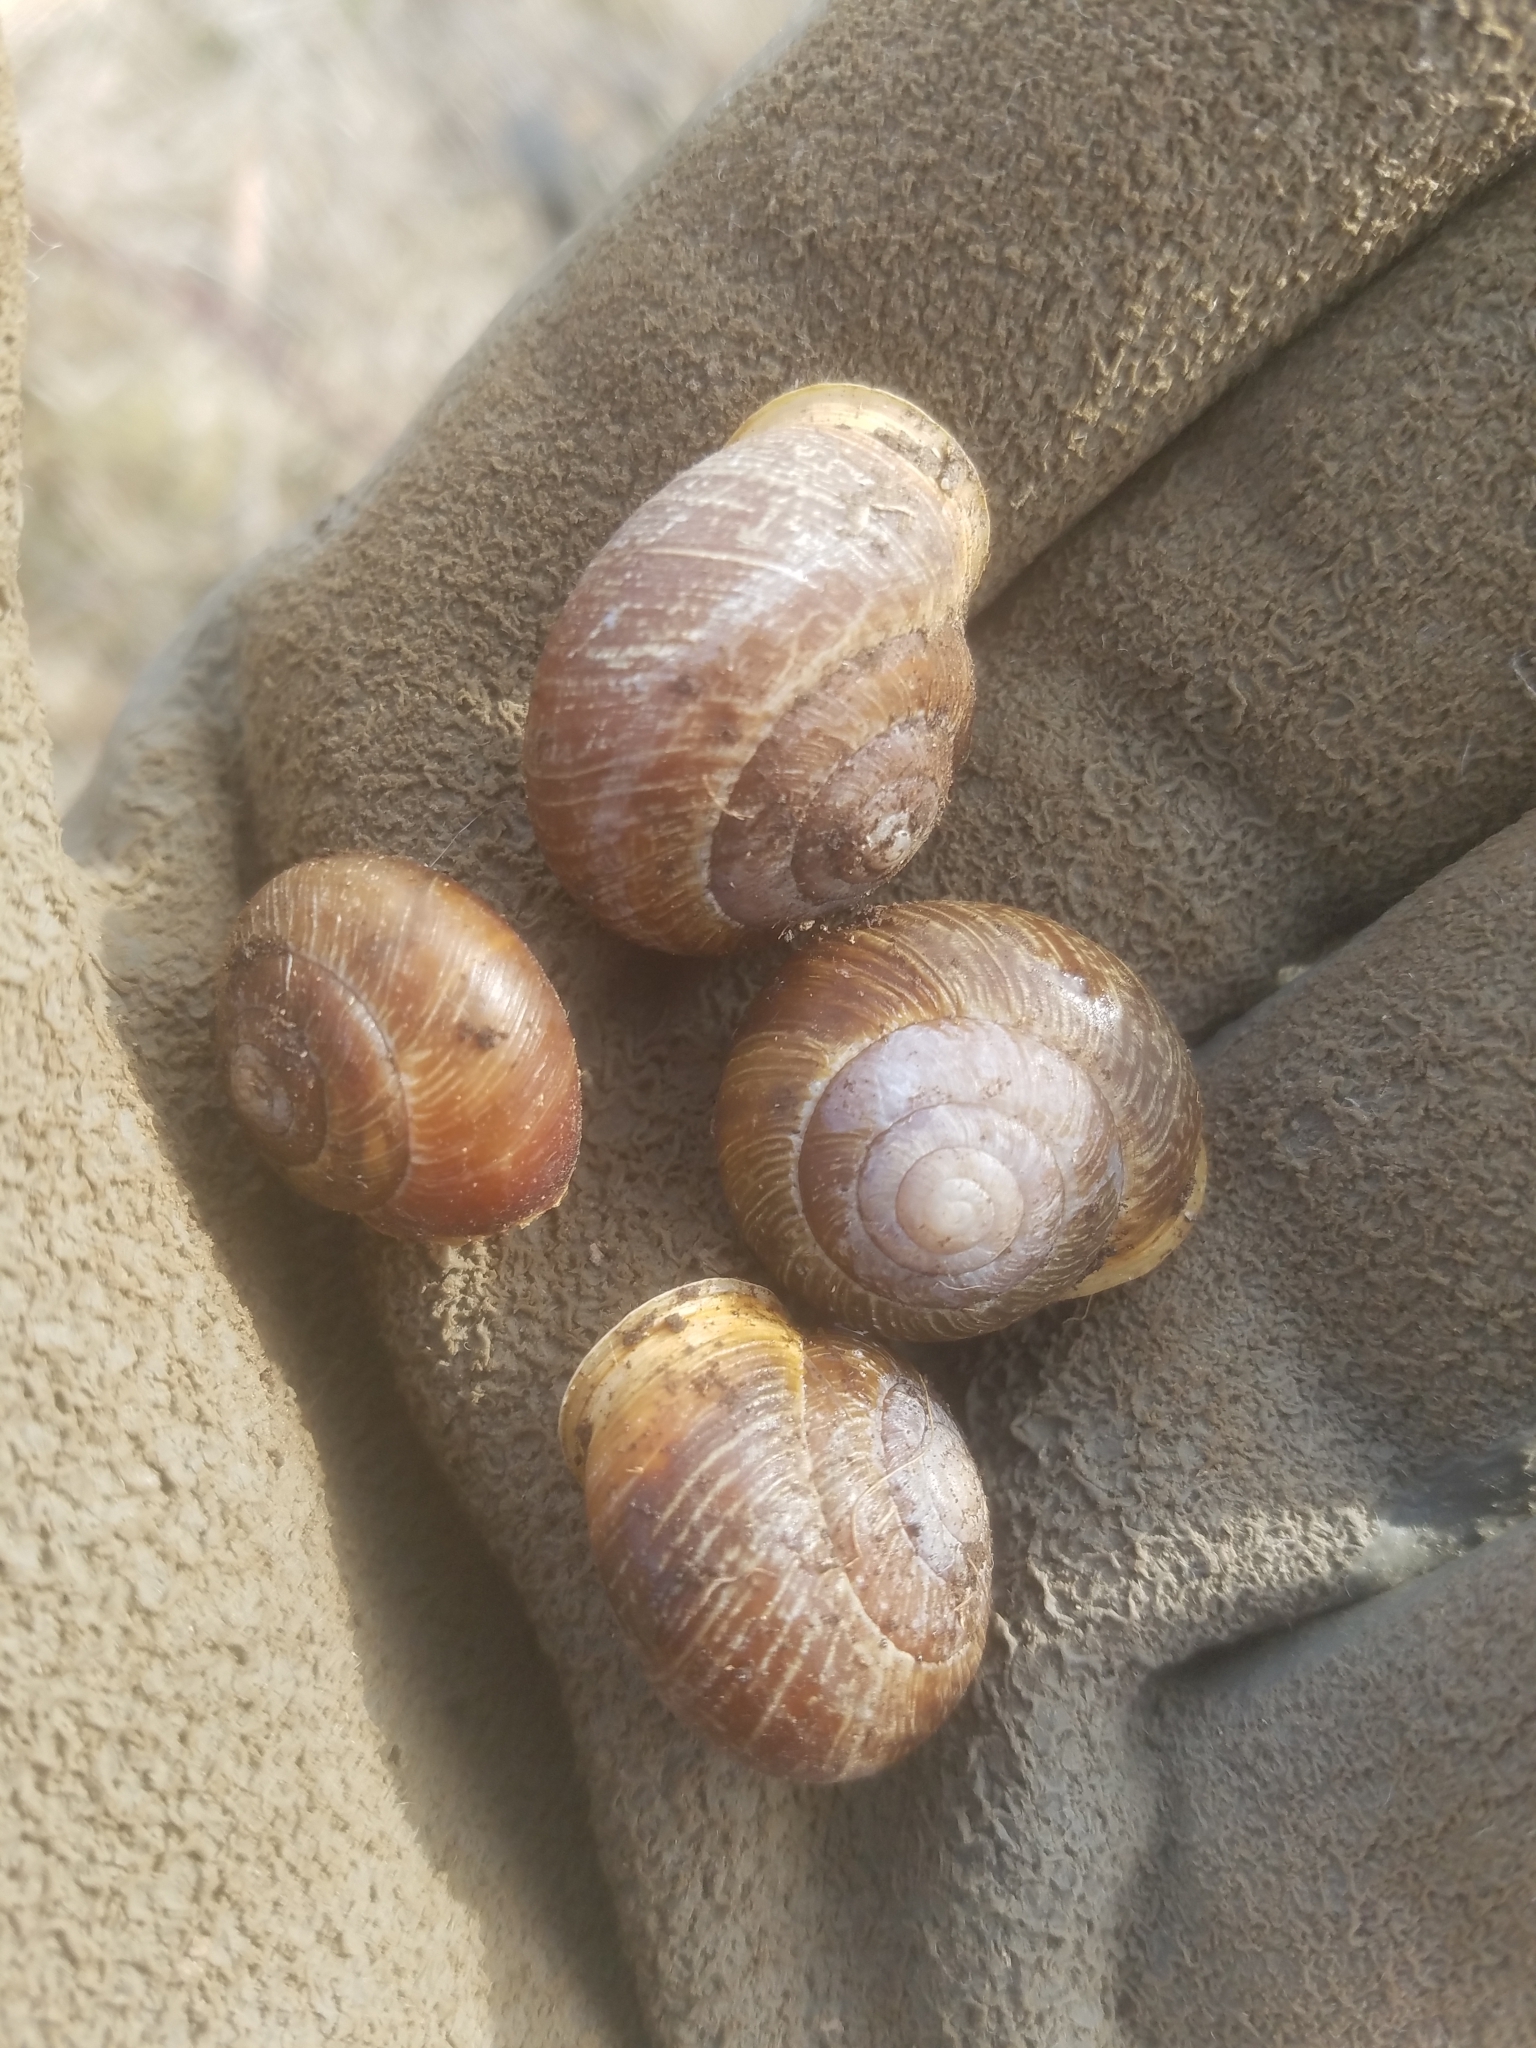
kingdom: Animalia
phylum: Mollusca
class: Gastropoda
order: Stylommatophora
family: Polygyridae
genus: Allogona
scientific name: Allogona townsendiana
